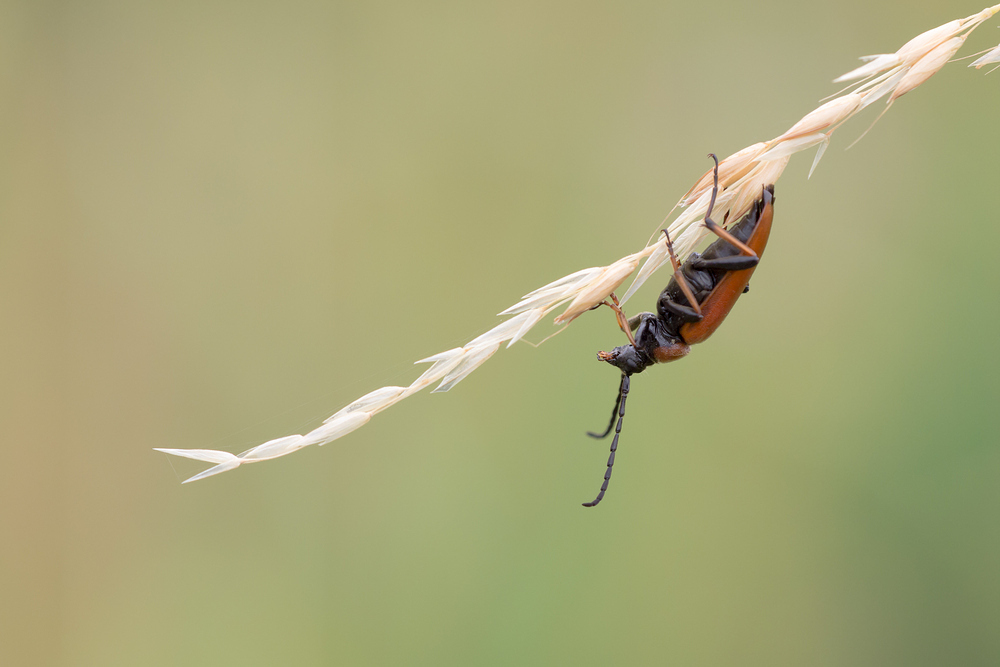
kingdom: Animalia
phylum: Arthropoda
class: Insecta
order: Coleoptera
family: Cerambycidae
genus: Stictoleptura
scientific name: Stictoleptura rubra
